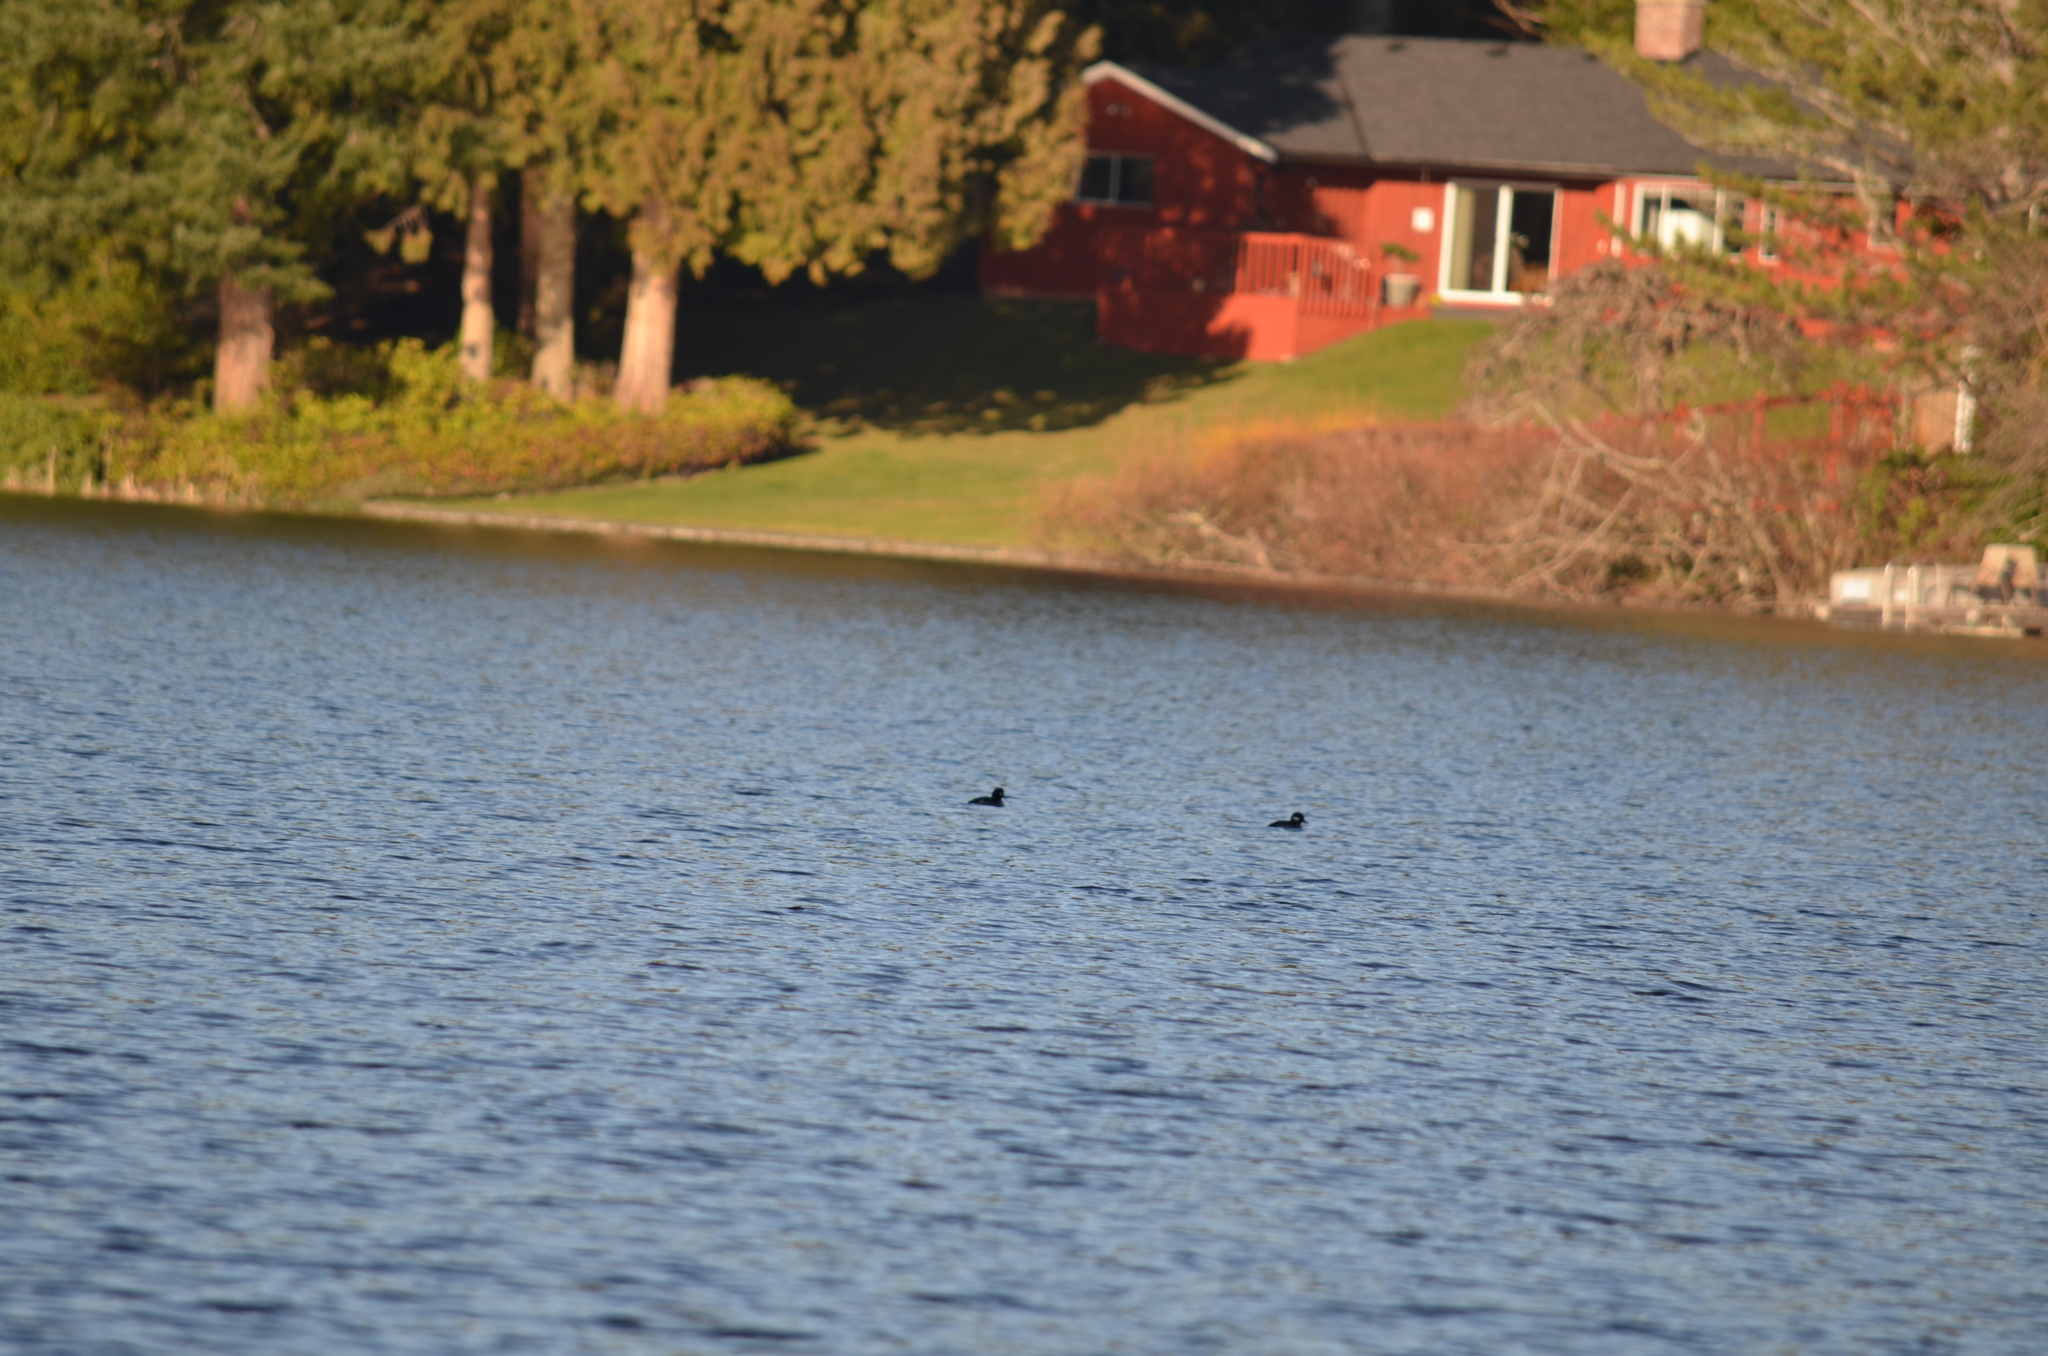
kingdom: Animalia
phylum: Chordata
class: Aves
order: Anseriformes
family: Anatidae
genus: Bucephala
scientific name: Bucephala albeola
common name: Bufflehead
